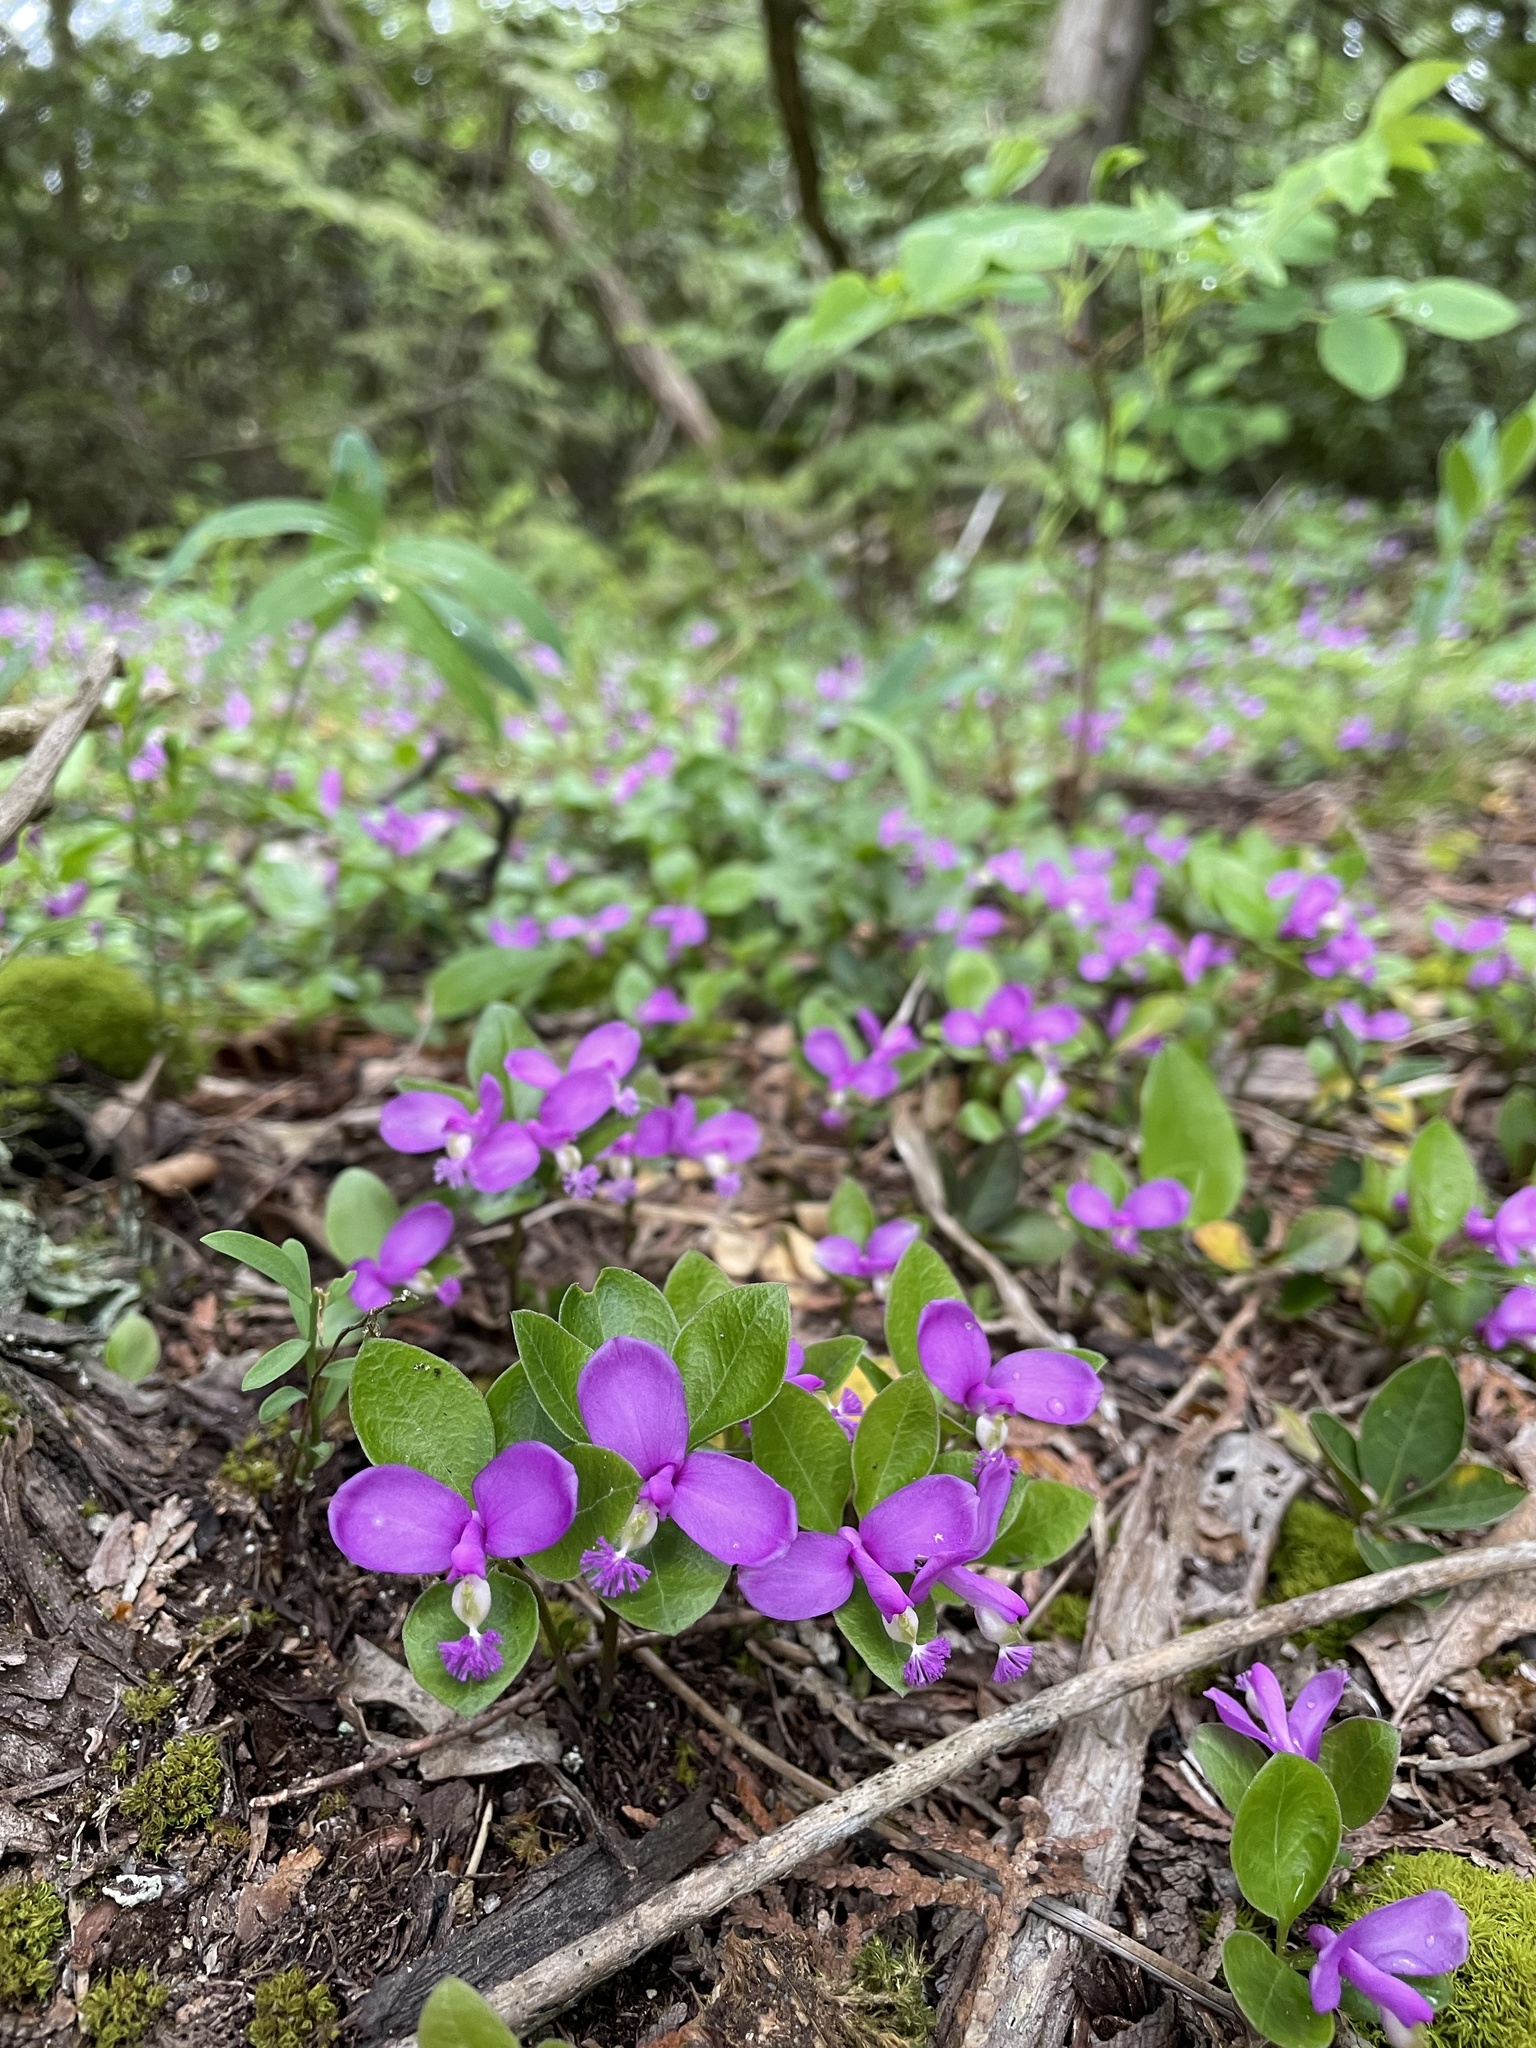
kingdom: Plantae
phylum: Tracheophyta
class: Magnoliopsida
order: Fabales
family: Polygalaceae
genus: Polygaloides
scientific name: Polygaloides paucifolia
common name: Bird-on-the-wing
